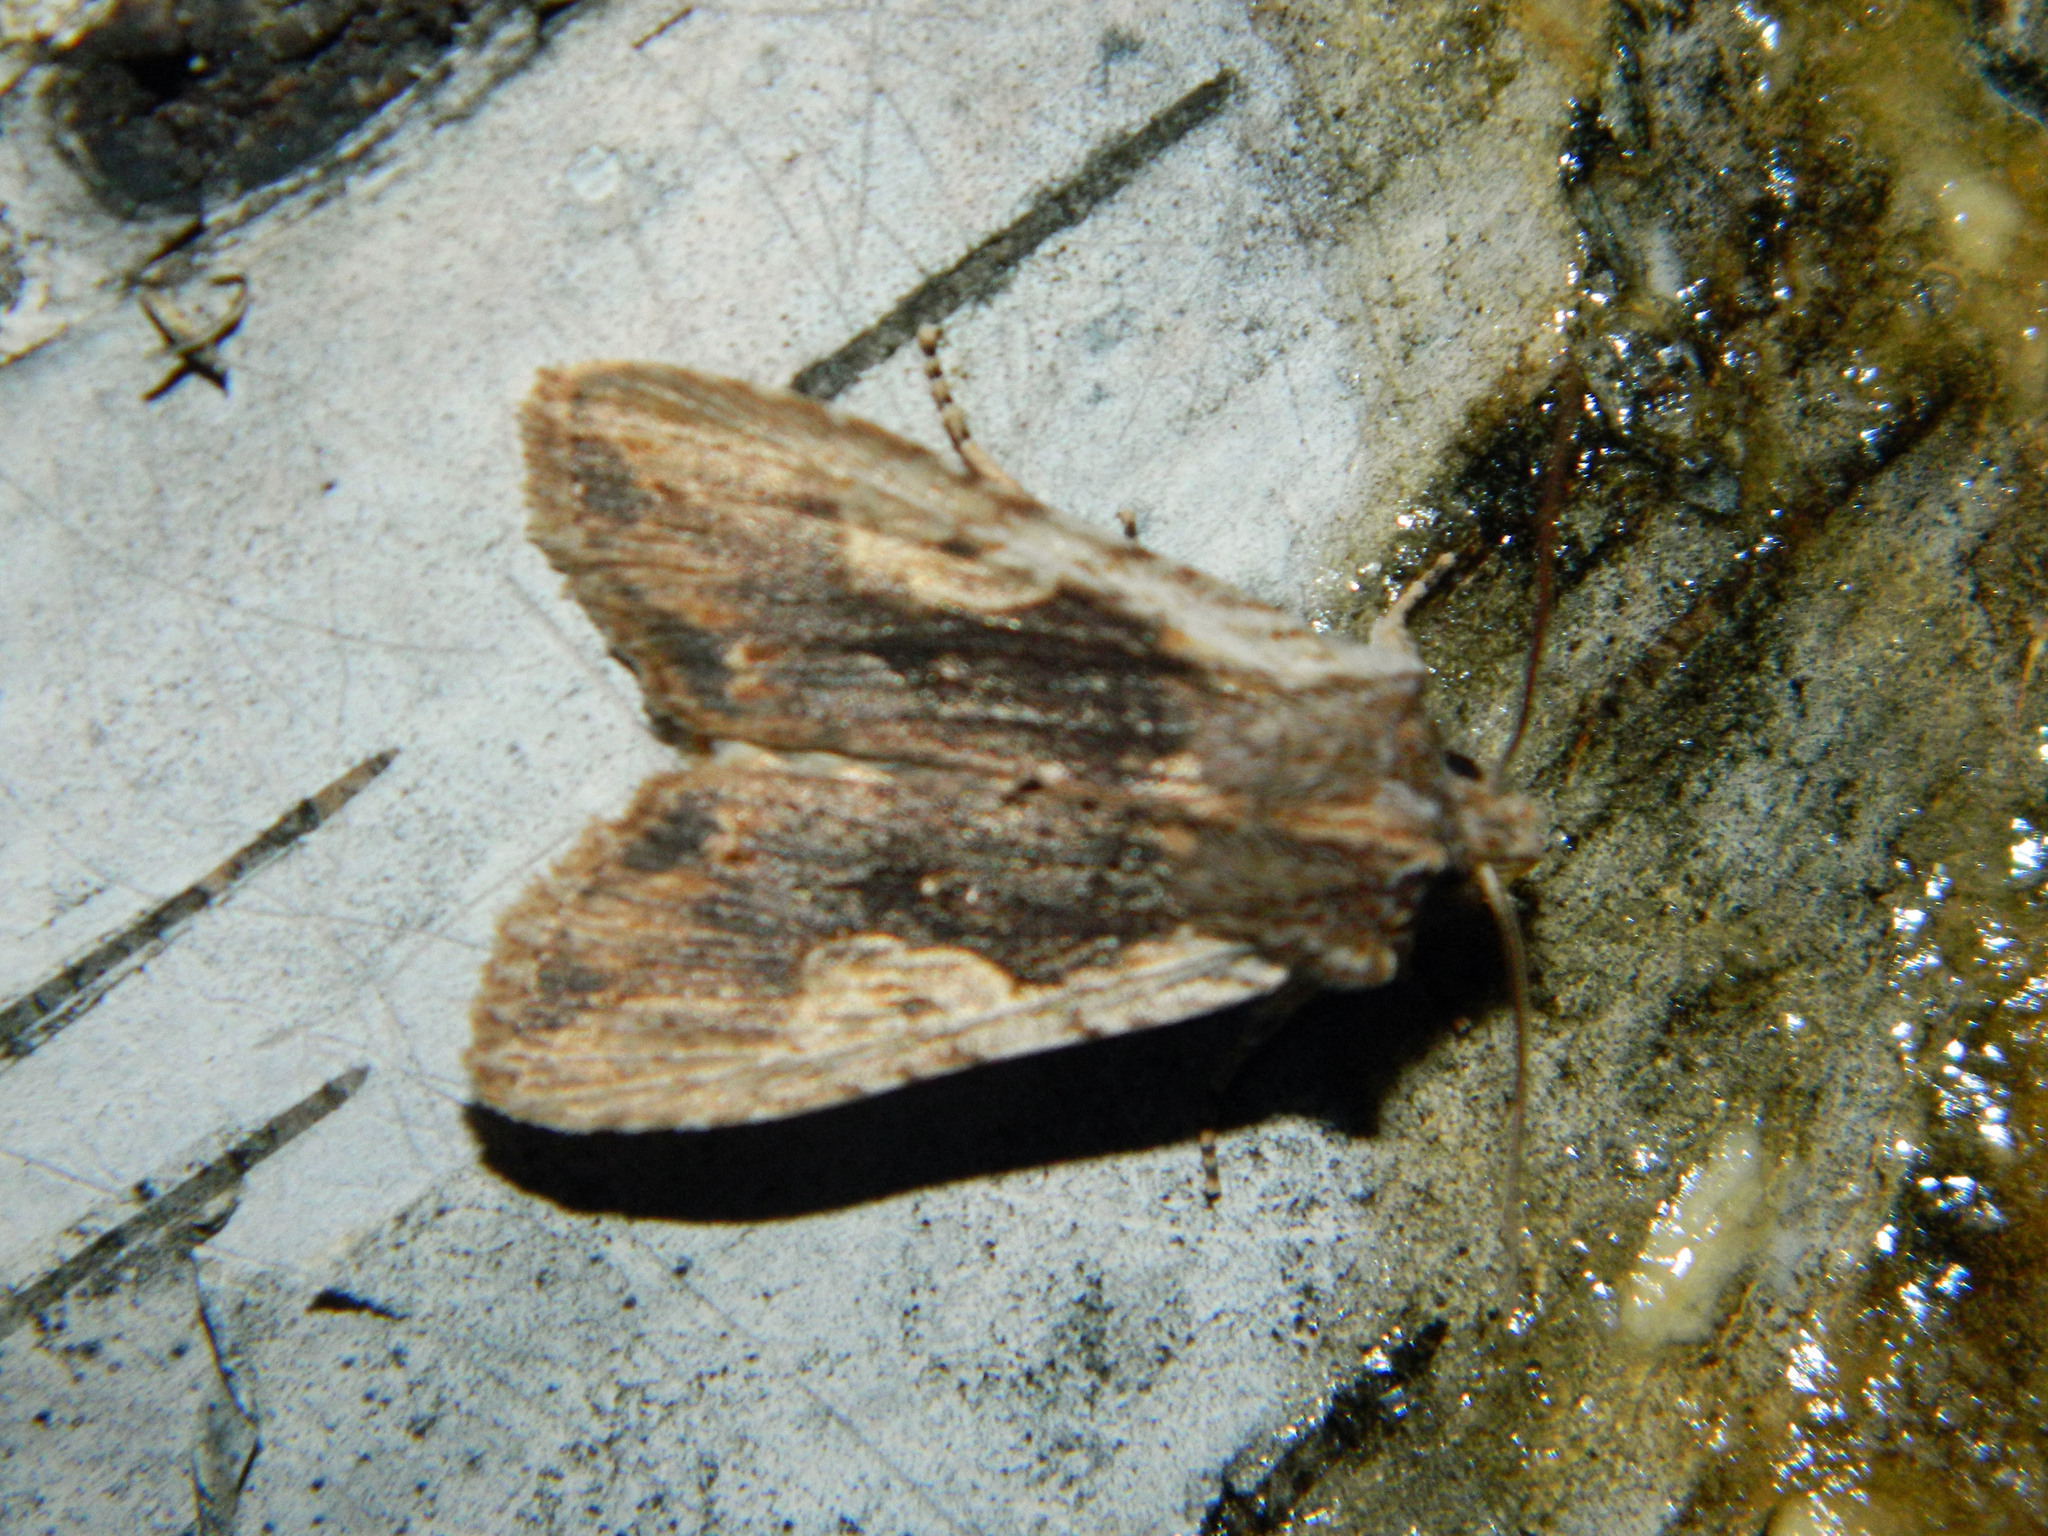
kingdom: Animalia
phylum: Arthropoda
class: Insecta
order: Lepidoptera
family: Noctuidae
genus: Lithophane
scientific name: Lithophane petulca
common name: Wanton pinion
